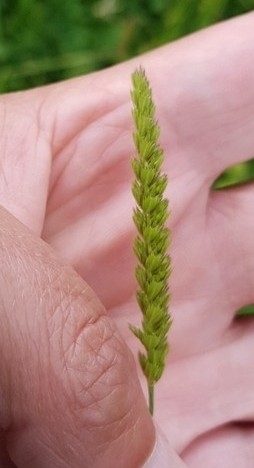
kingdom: Plantae
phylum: Tracheophyta
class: Liliopsida
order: Poales
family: Poaceae
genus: Cynosurus
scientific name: Cynosurus cristatus
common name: Crested dog's-tail
